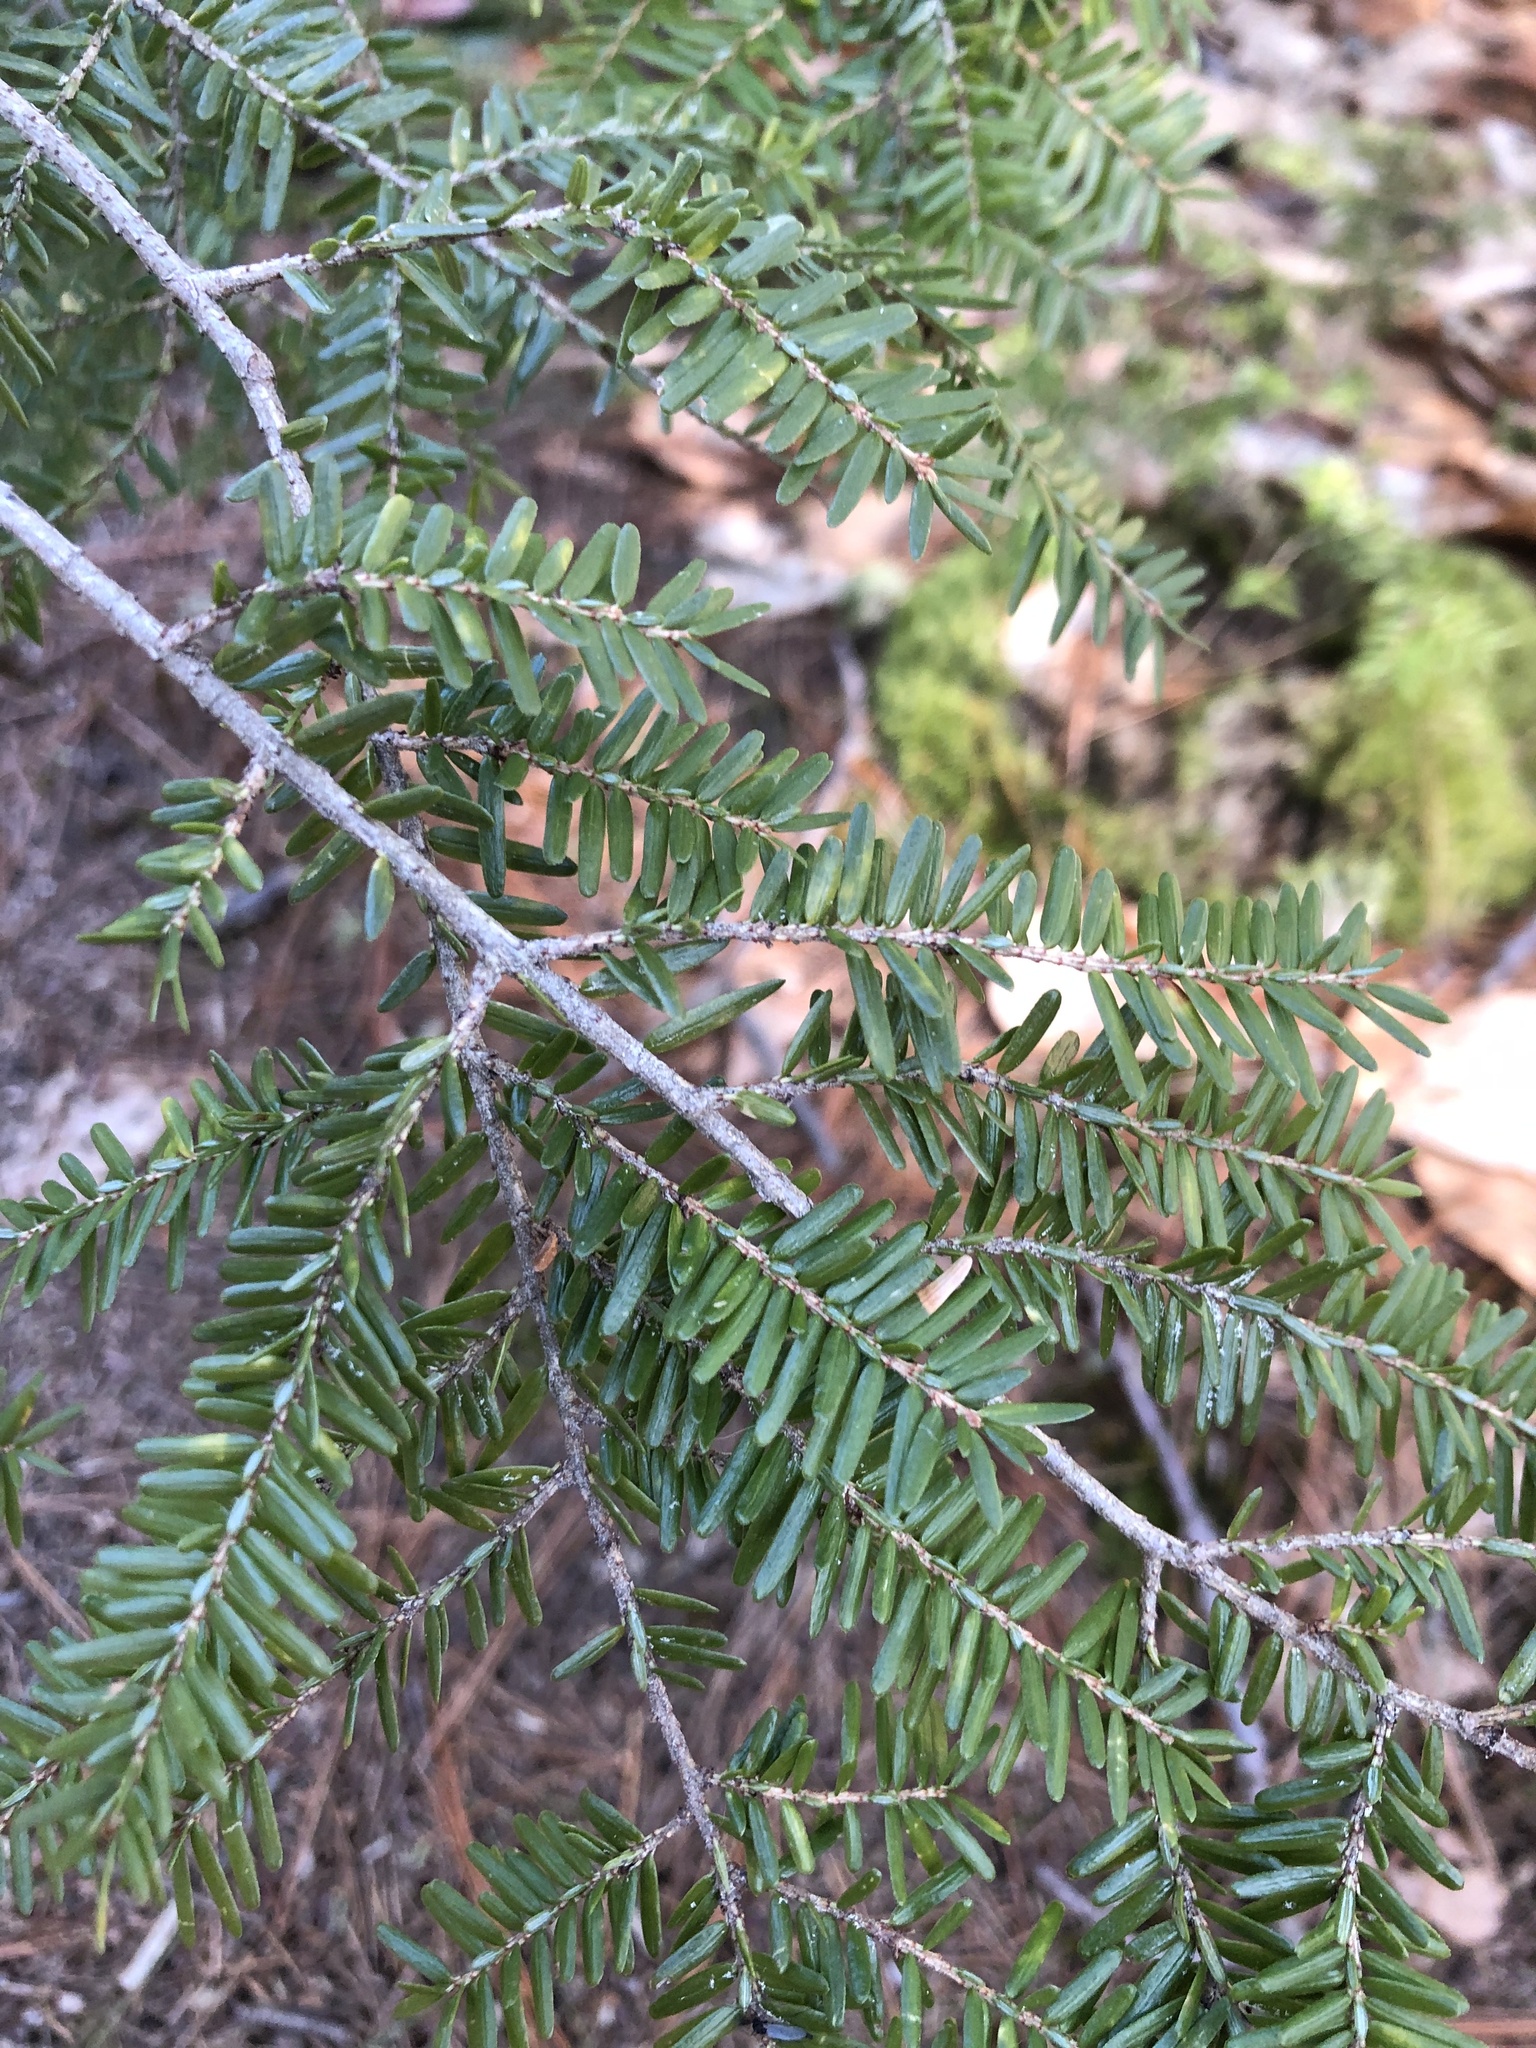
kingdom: Plantae
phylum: Tracheophyta
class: Pinopsida
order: Pinales
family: Pinaceae
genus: Tsuga
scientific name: Tsuga canadensis
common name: Eastern hemlock
